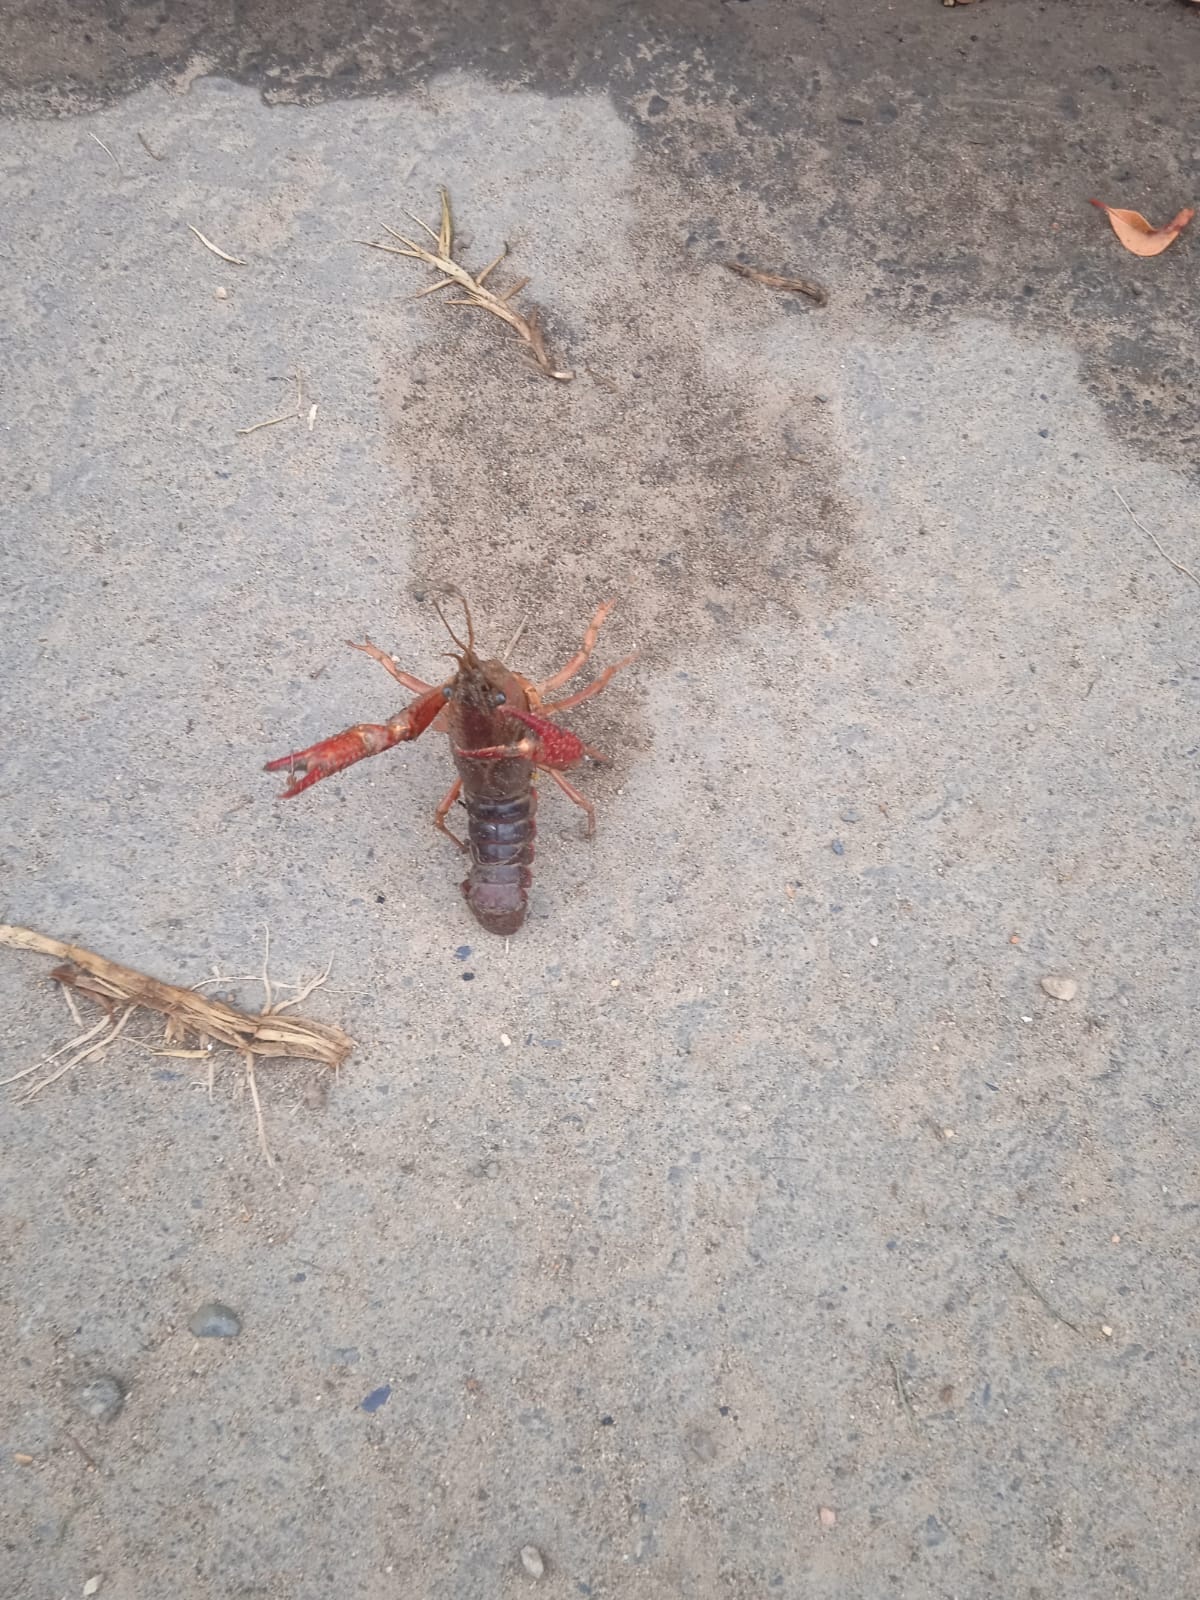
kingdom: Animalia
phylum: Arthropoda
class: Malacostraca
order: Decapoda
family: Cambaridae
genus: Procambarus
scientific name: Procambarus clarkii
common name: Red swamp crayfish
